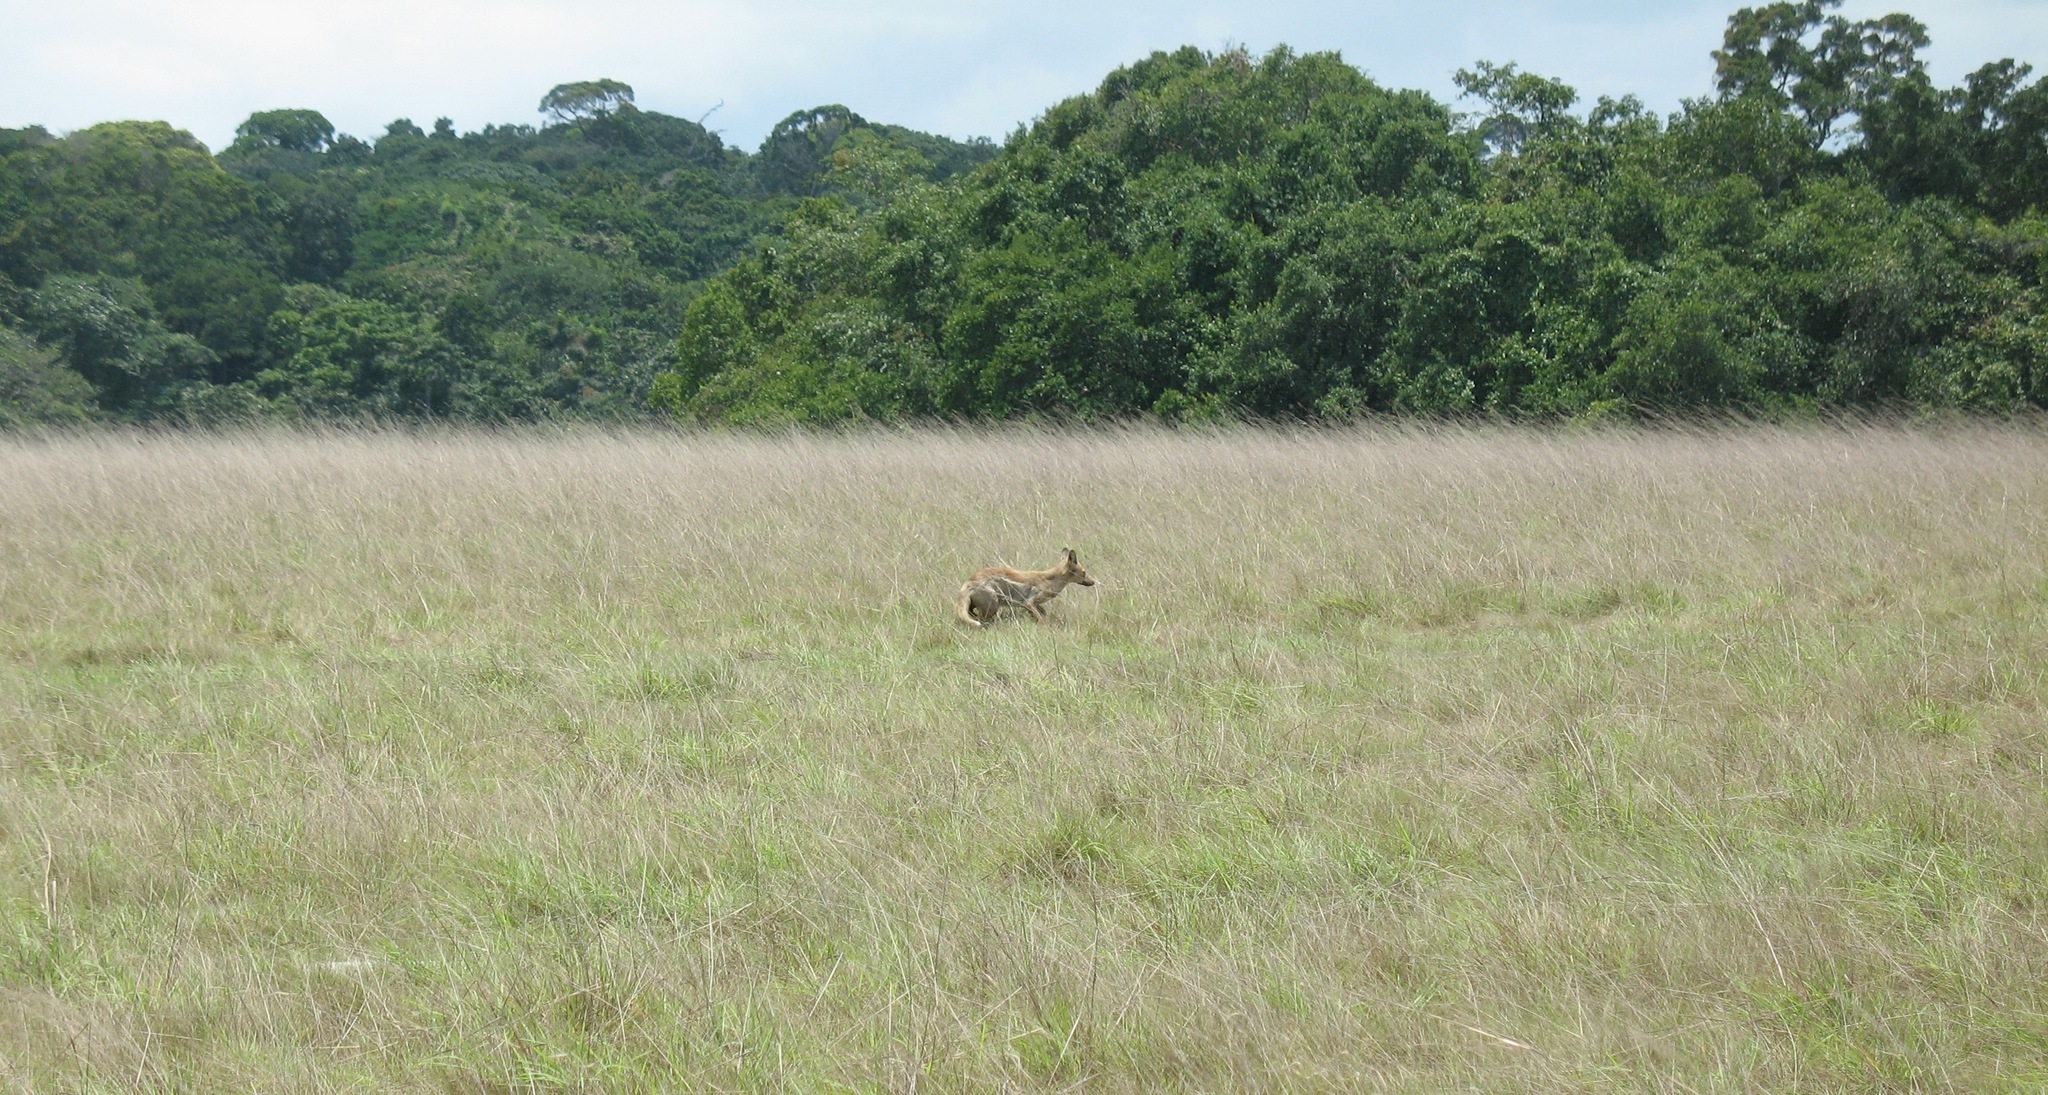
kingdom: Animalia
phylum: Chordata
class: Mammalia
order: Carnivora
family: Canidae
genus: Lupulella
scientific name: Lupulella
